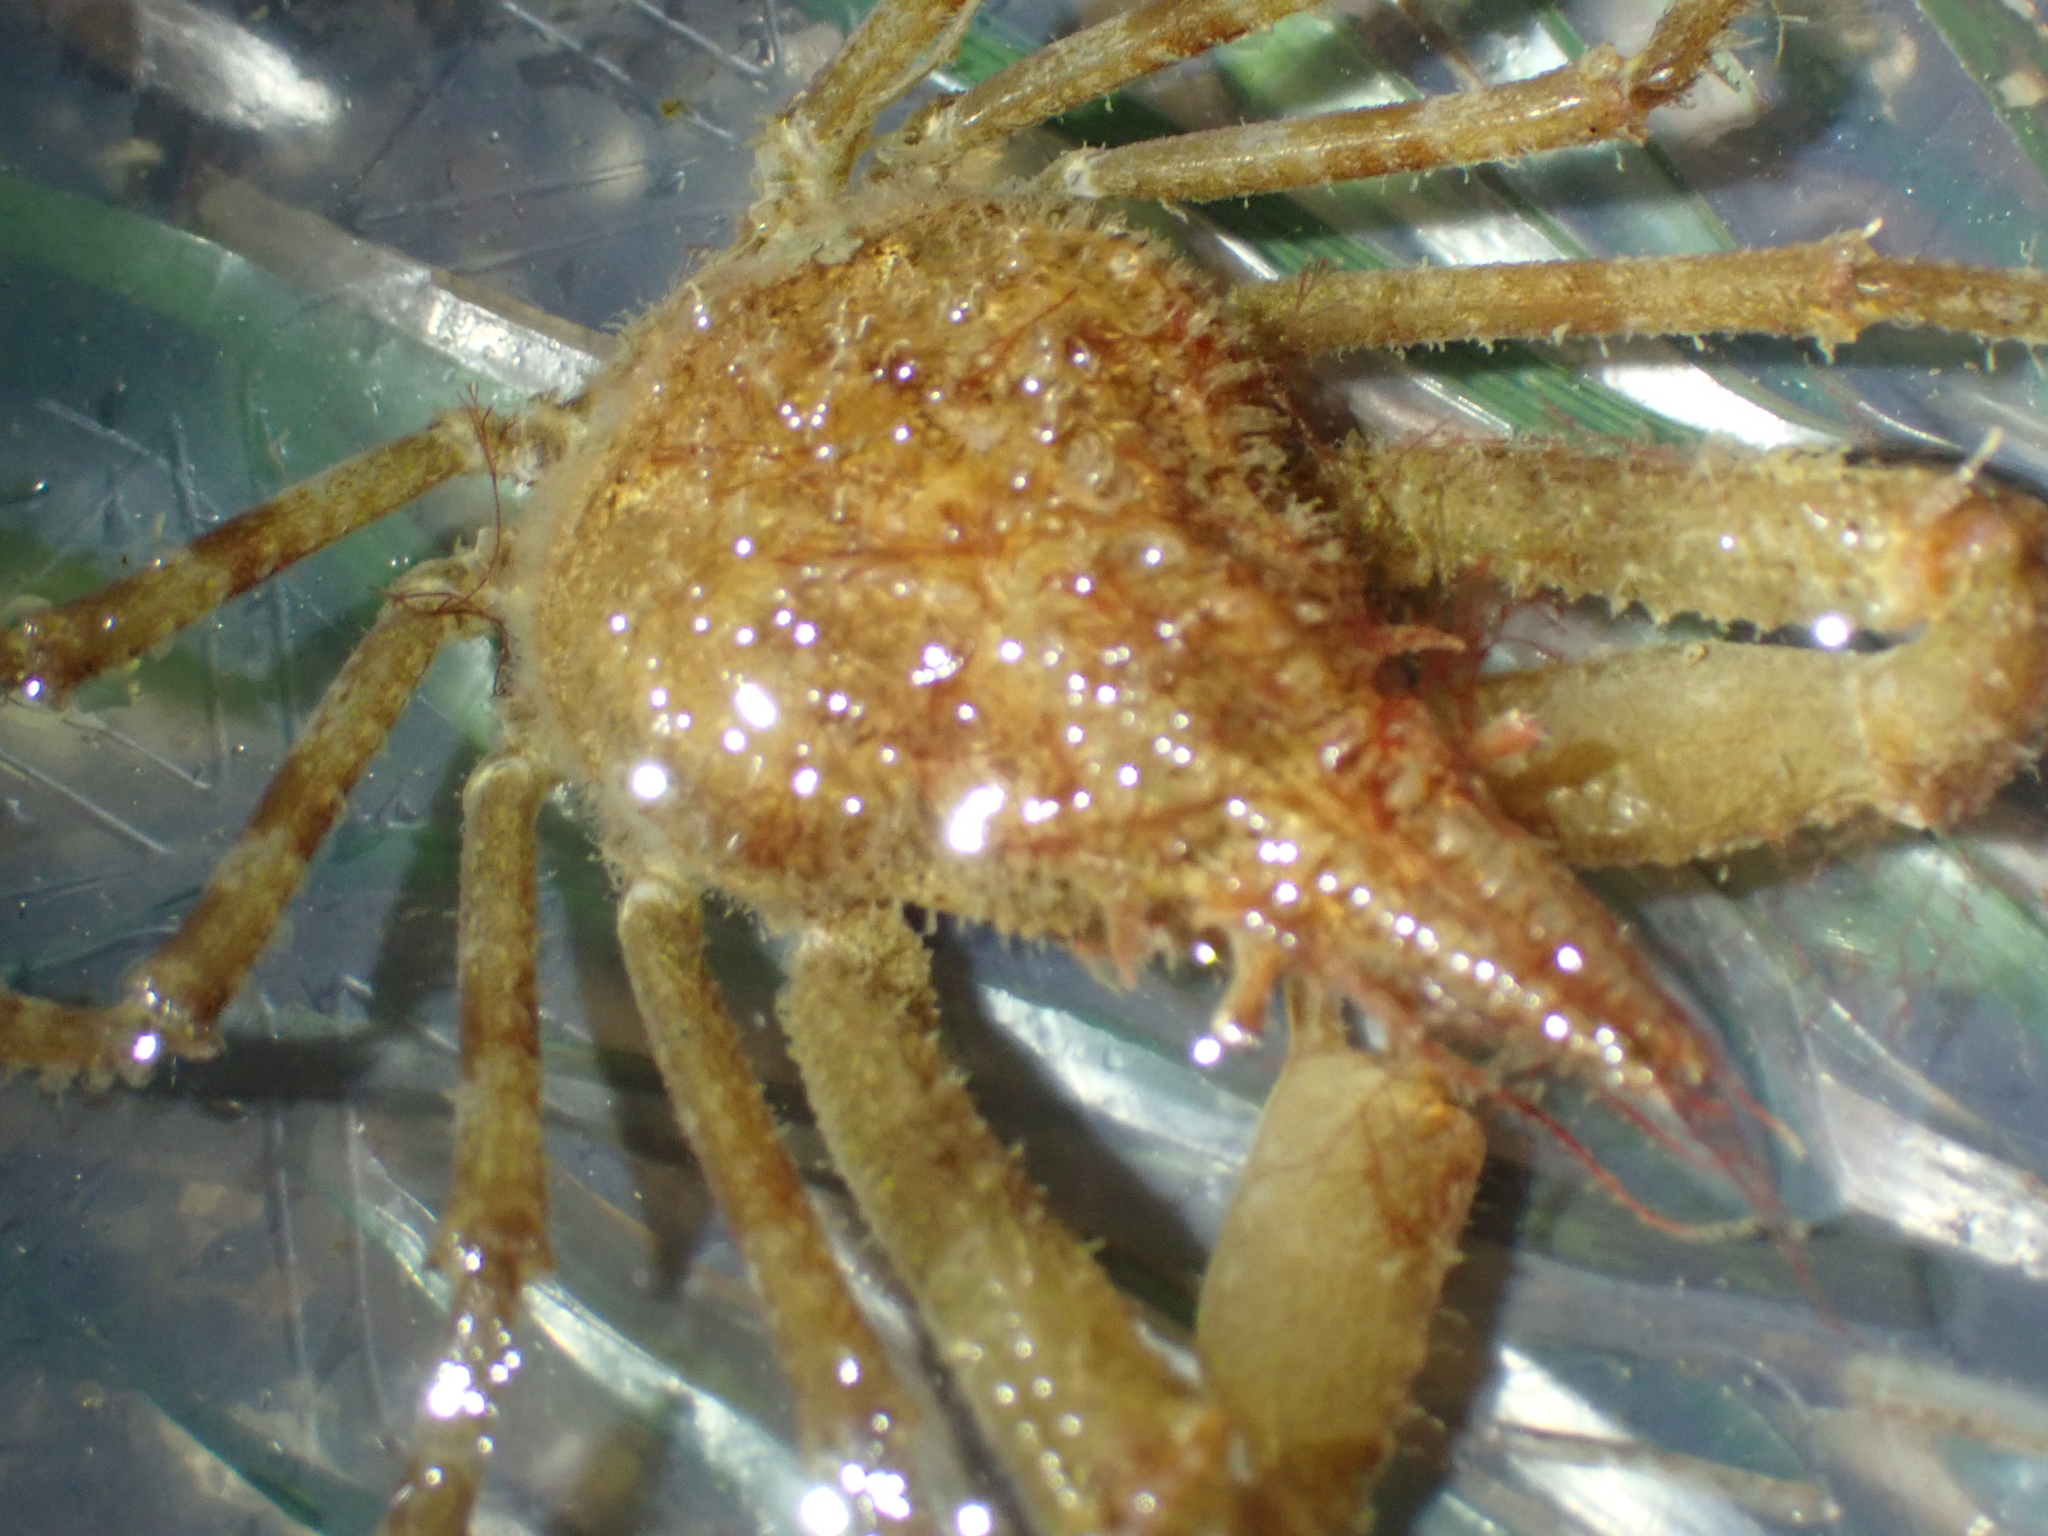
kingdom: Animalia
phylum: Arthropoda
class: Malacostraca
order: Decapoda
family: Oregoniidae
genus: Oregonia
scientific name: Oregonia gracilis
